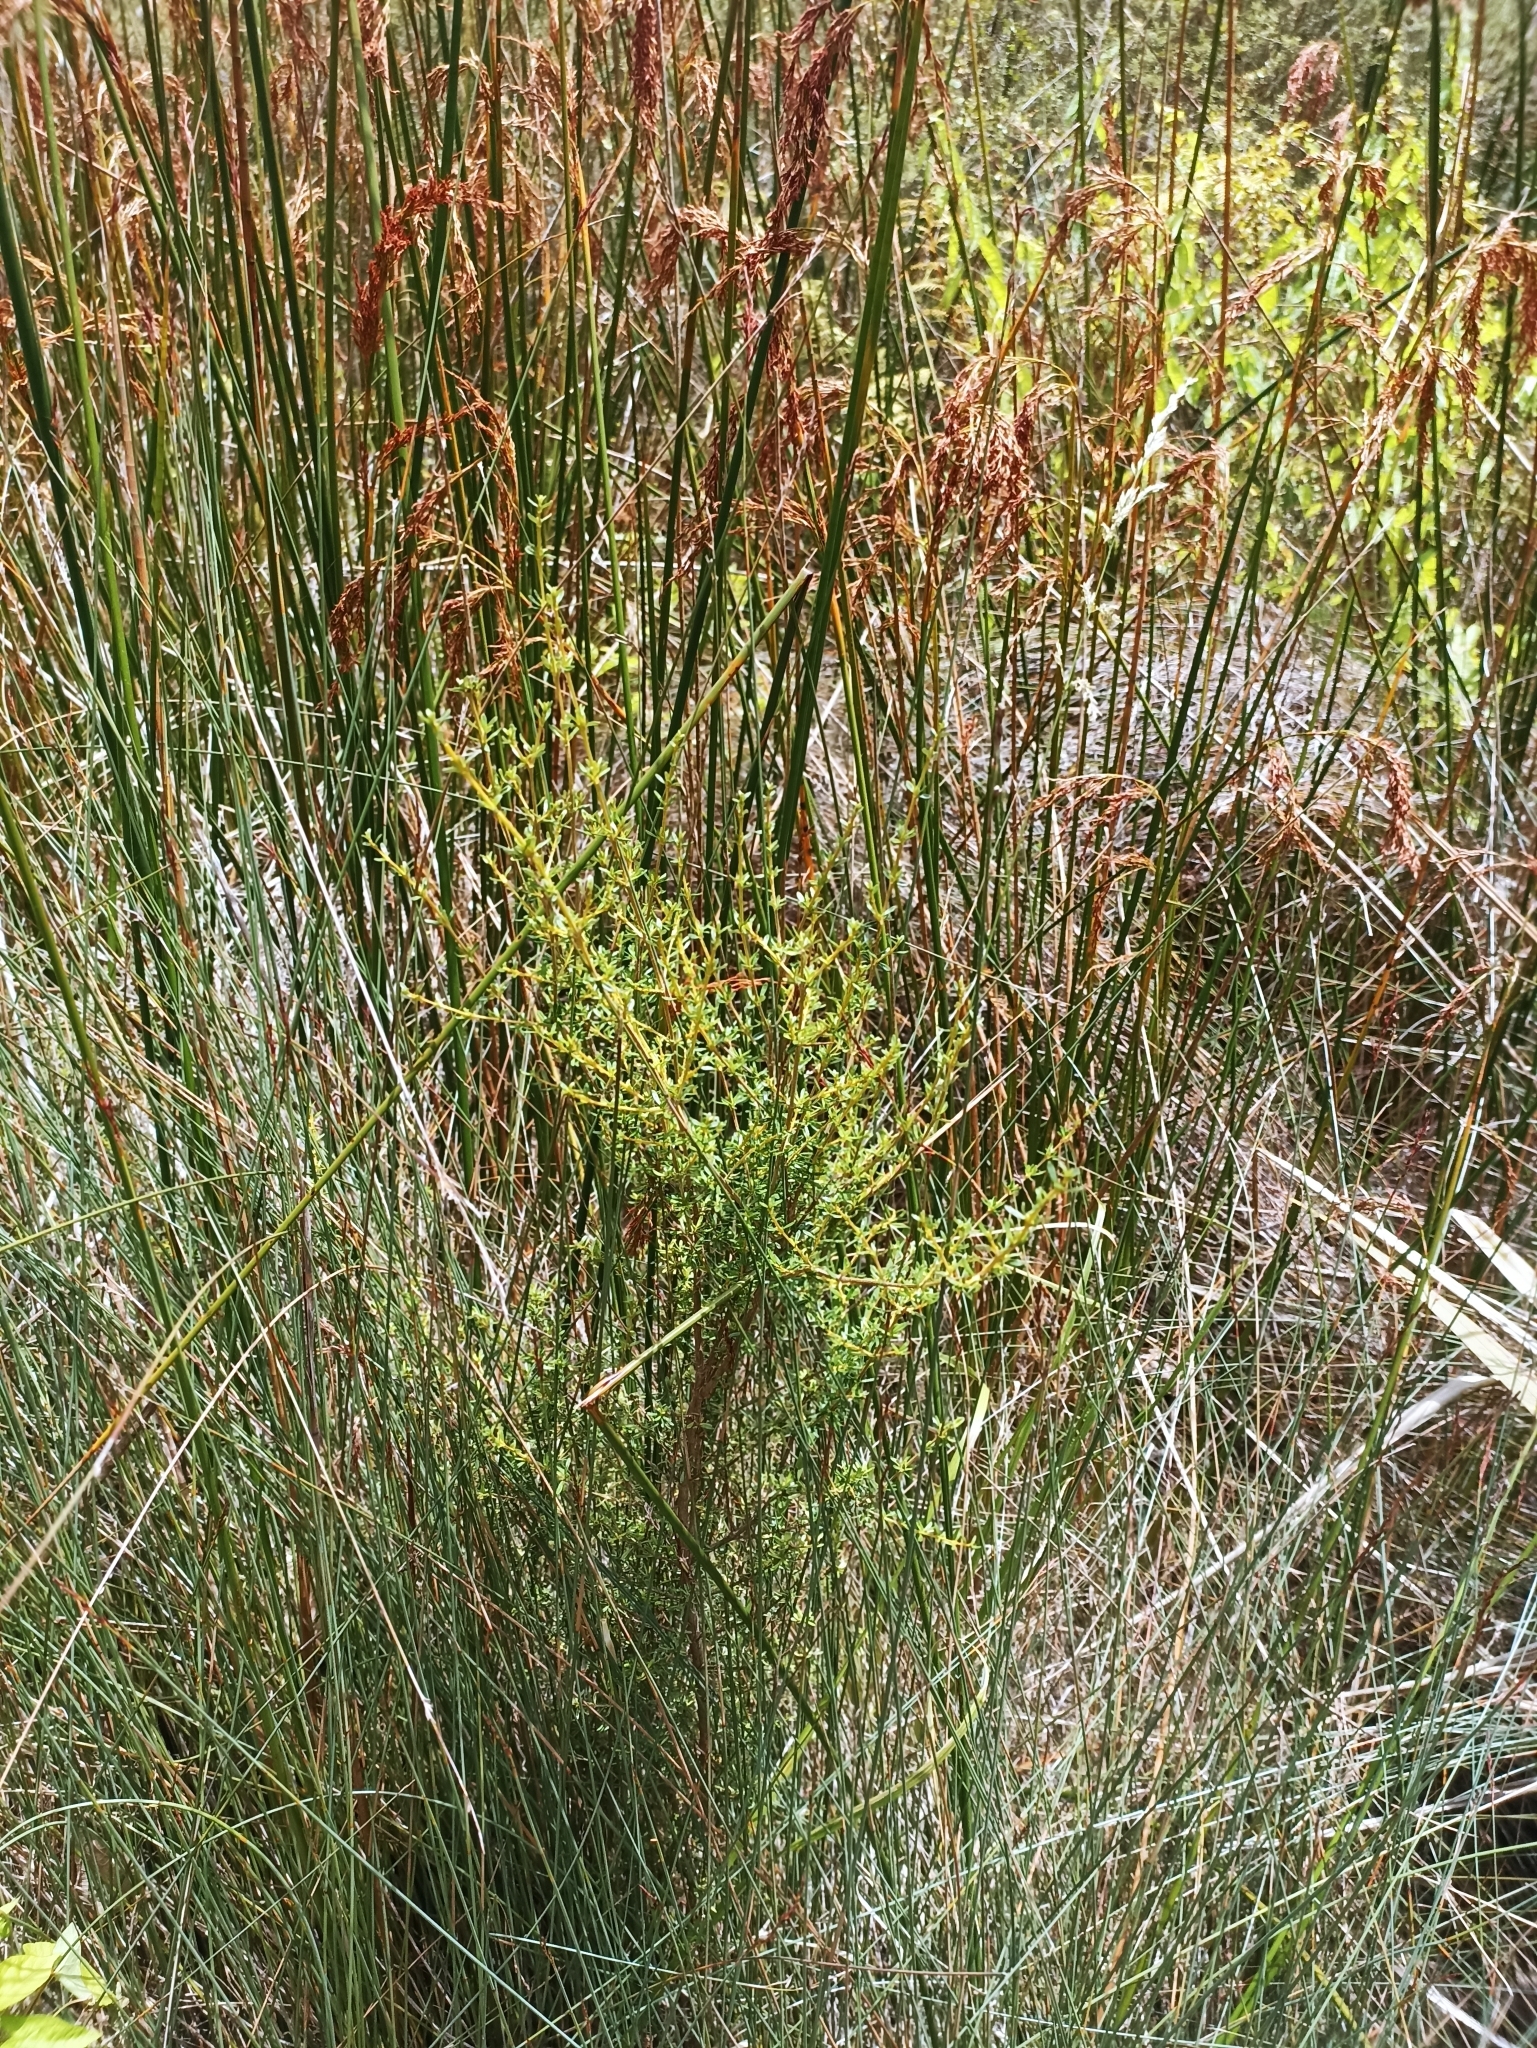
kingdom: Plantae
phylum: Tracheophyta
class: Magnoliopsida
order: Asterales
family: Asteraceae
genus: Olearia
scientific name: Olearia solandri
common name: Coastal daisybush
